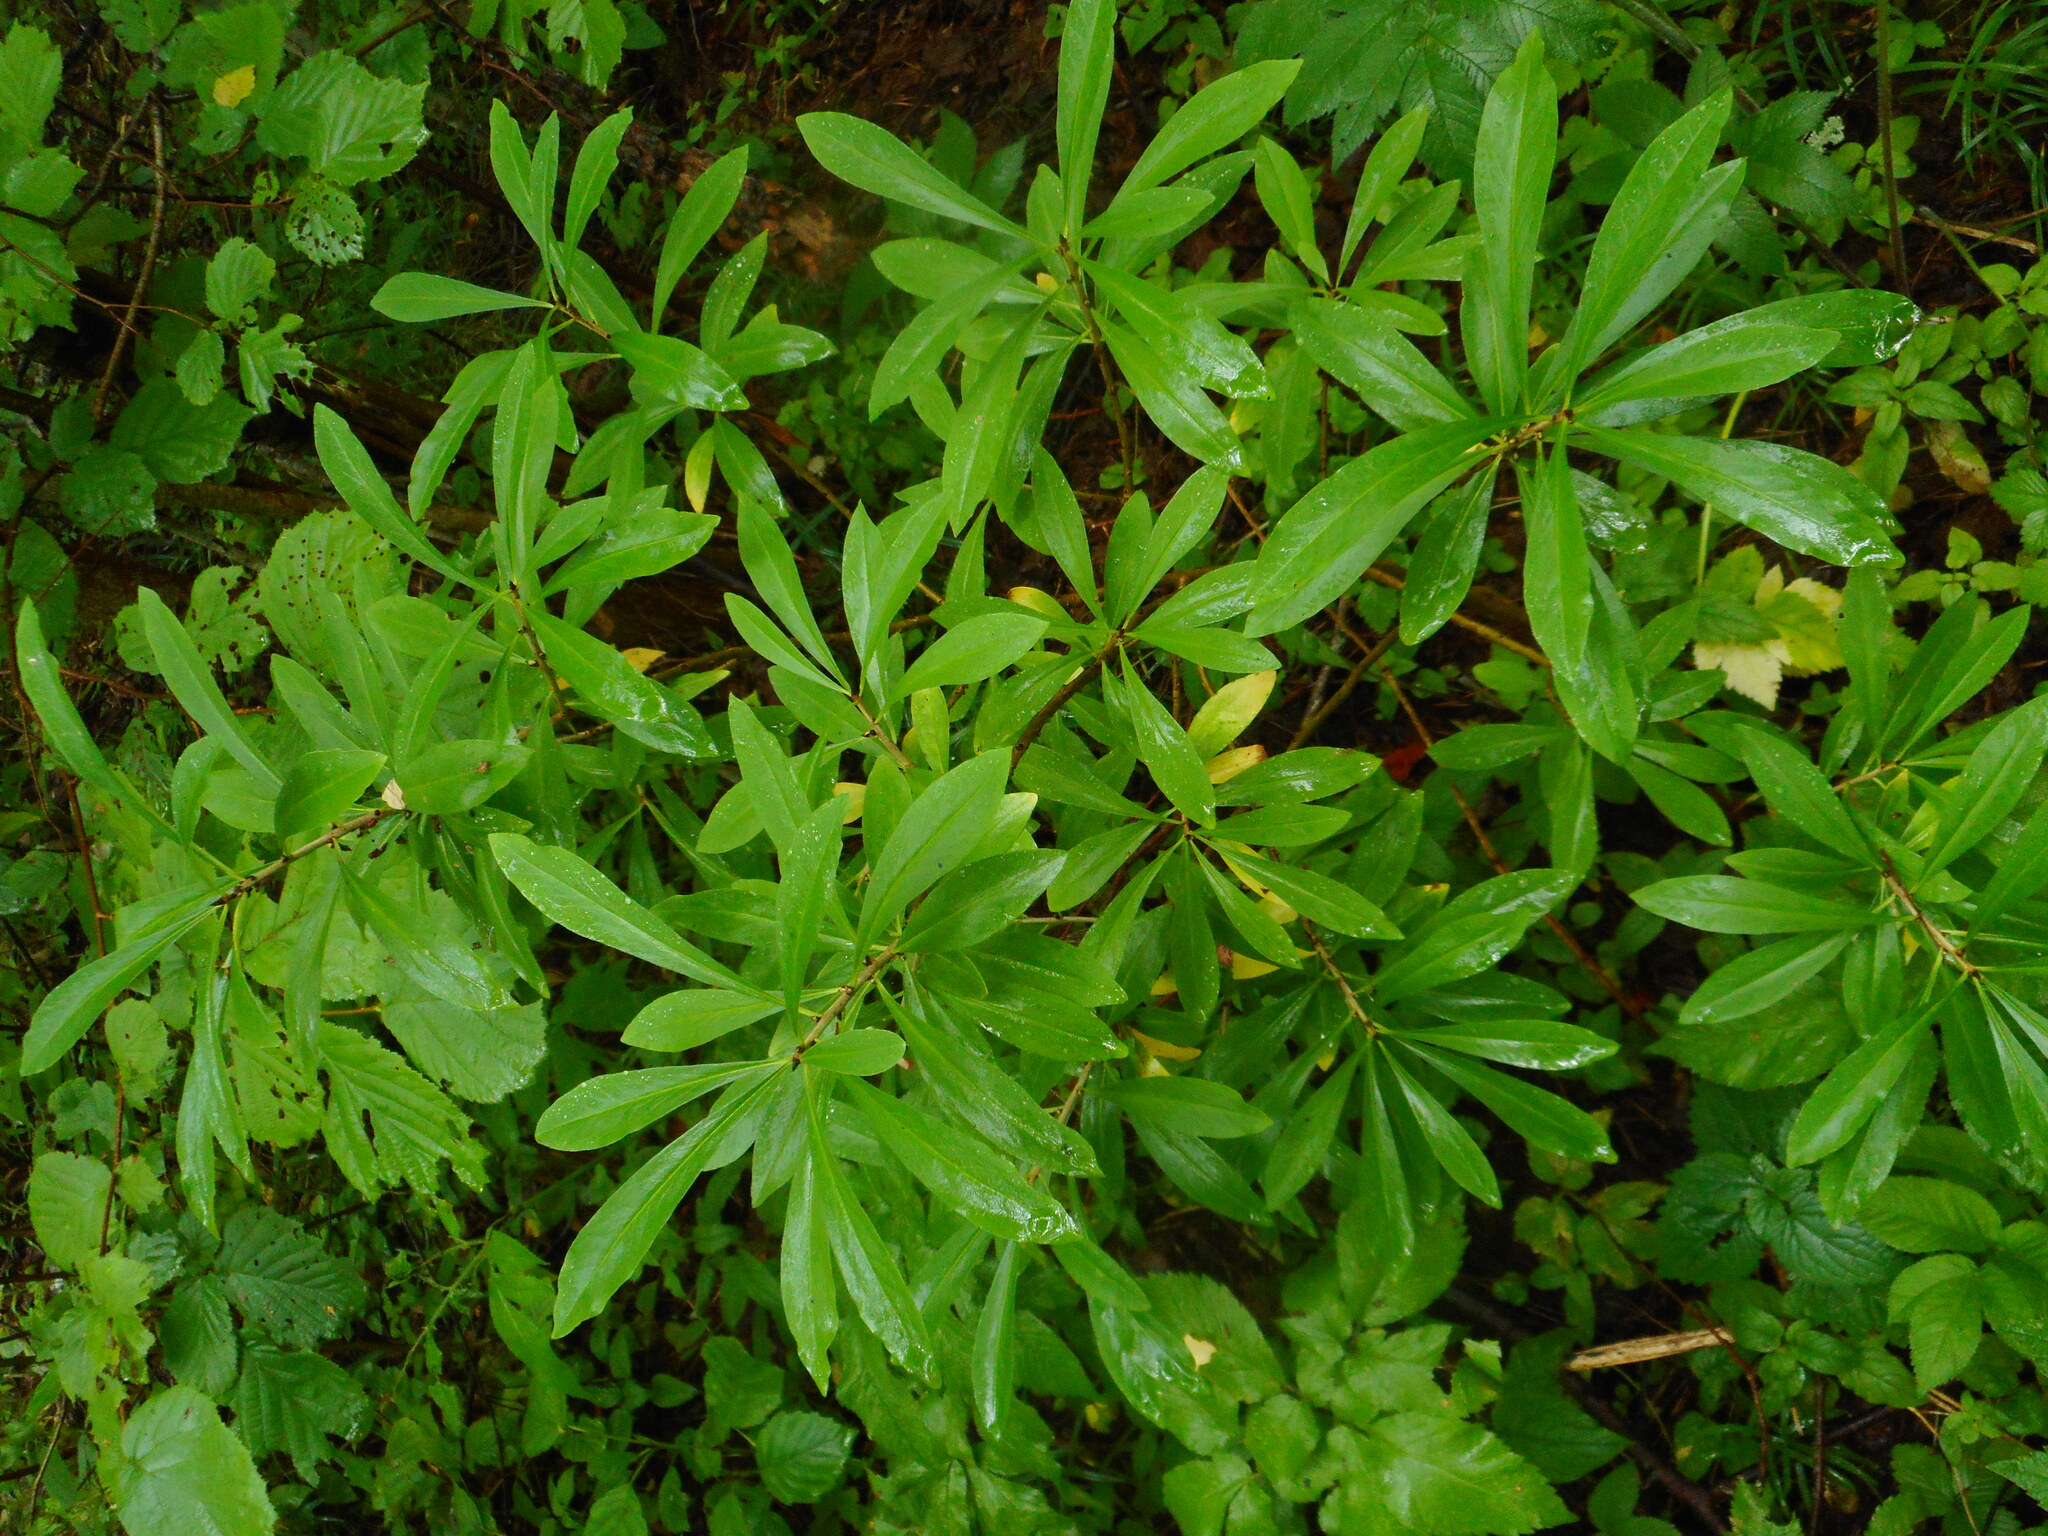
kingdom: Plantae
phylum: Tracheophyta
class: Magnoliopsida
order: Malvales
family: Thymelaeaceae
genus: Daphne
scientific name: Daphne mezereum
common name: Mezereon
